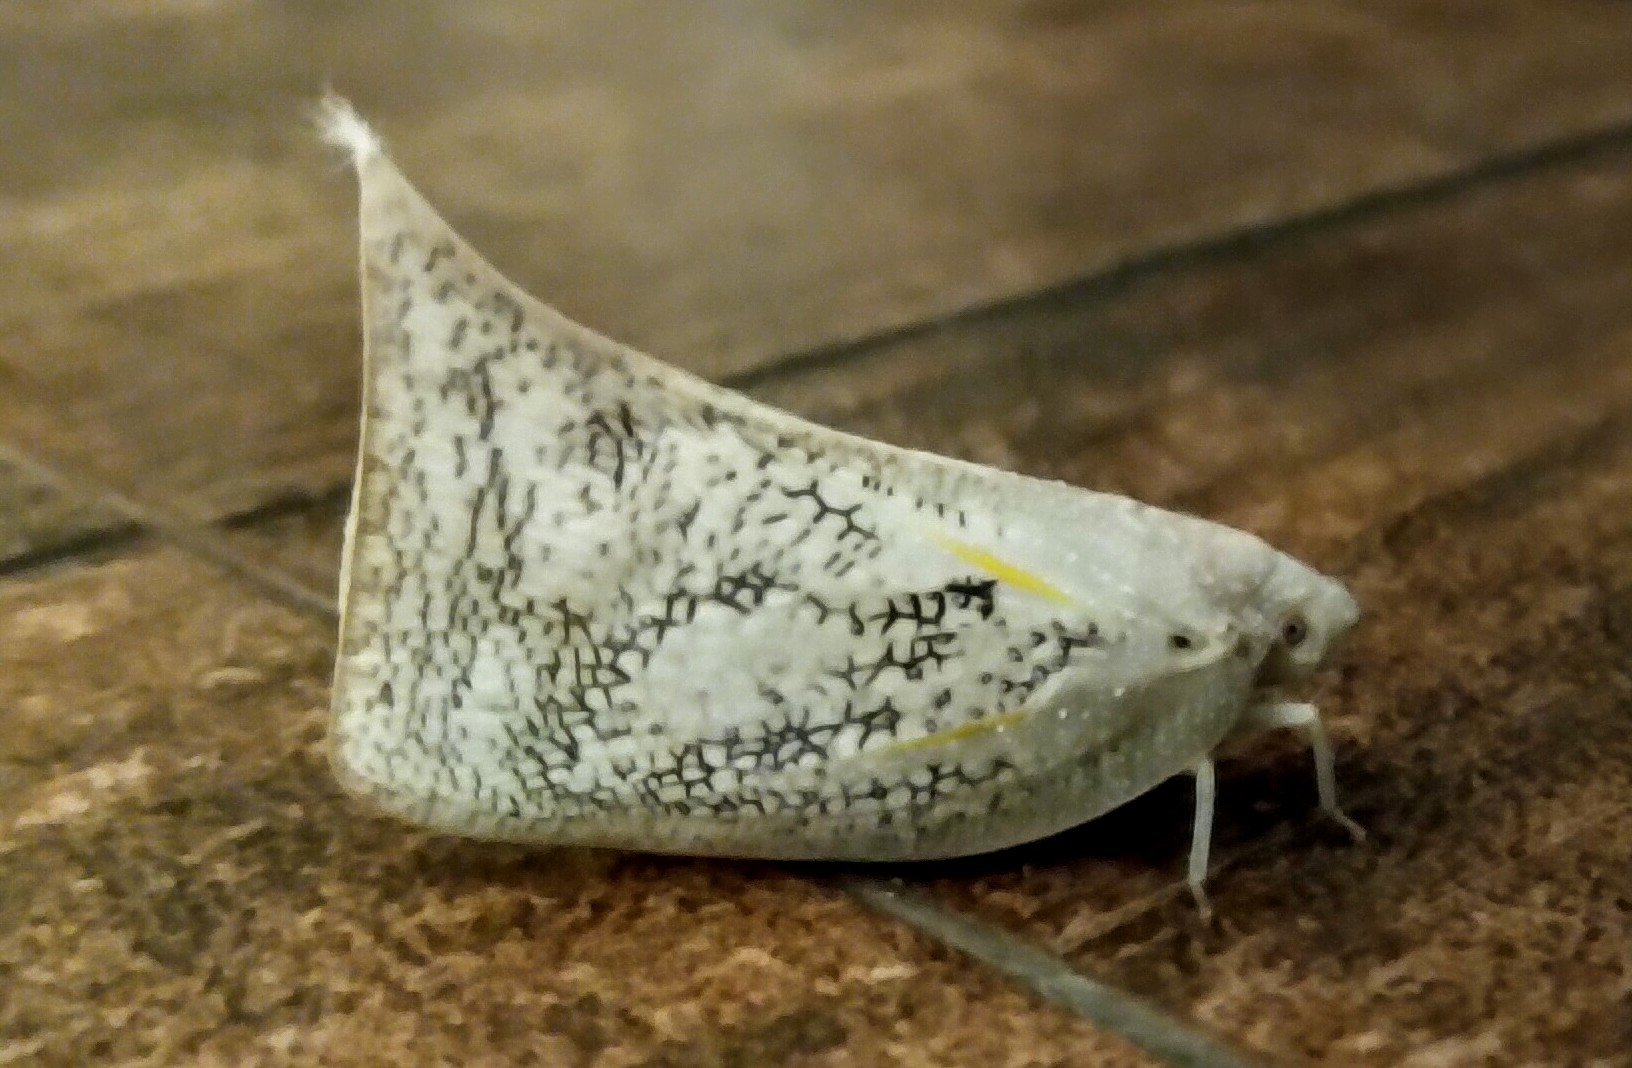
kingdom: Animalia
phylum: Arthropoda
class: Insecta
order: Hemiptera
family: Flatidae
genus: Lawana
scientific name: Lawana conspersa
